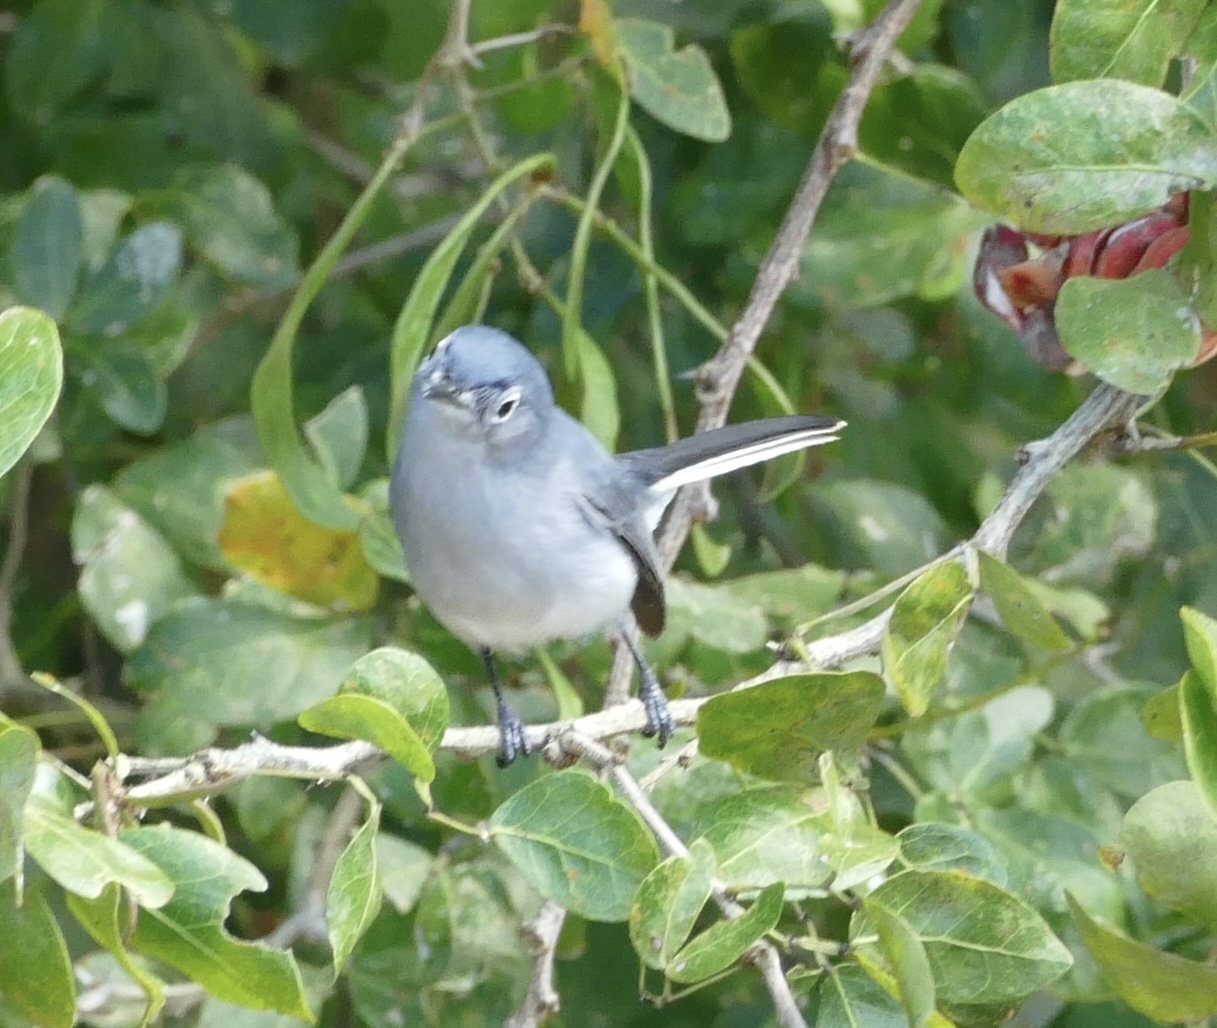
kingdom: Animalia
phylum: Chordata
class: Aves
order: Passeriformes
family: Polioptilidae
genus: Polioptila
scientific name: Polioptila caerulea
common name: Blue-gray gnatcatcher
